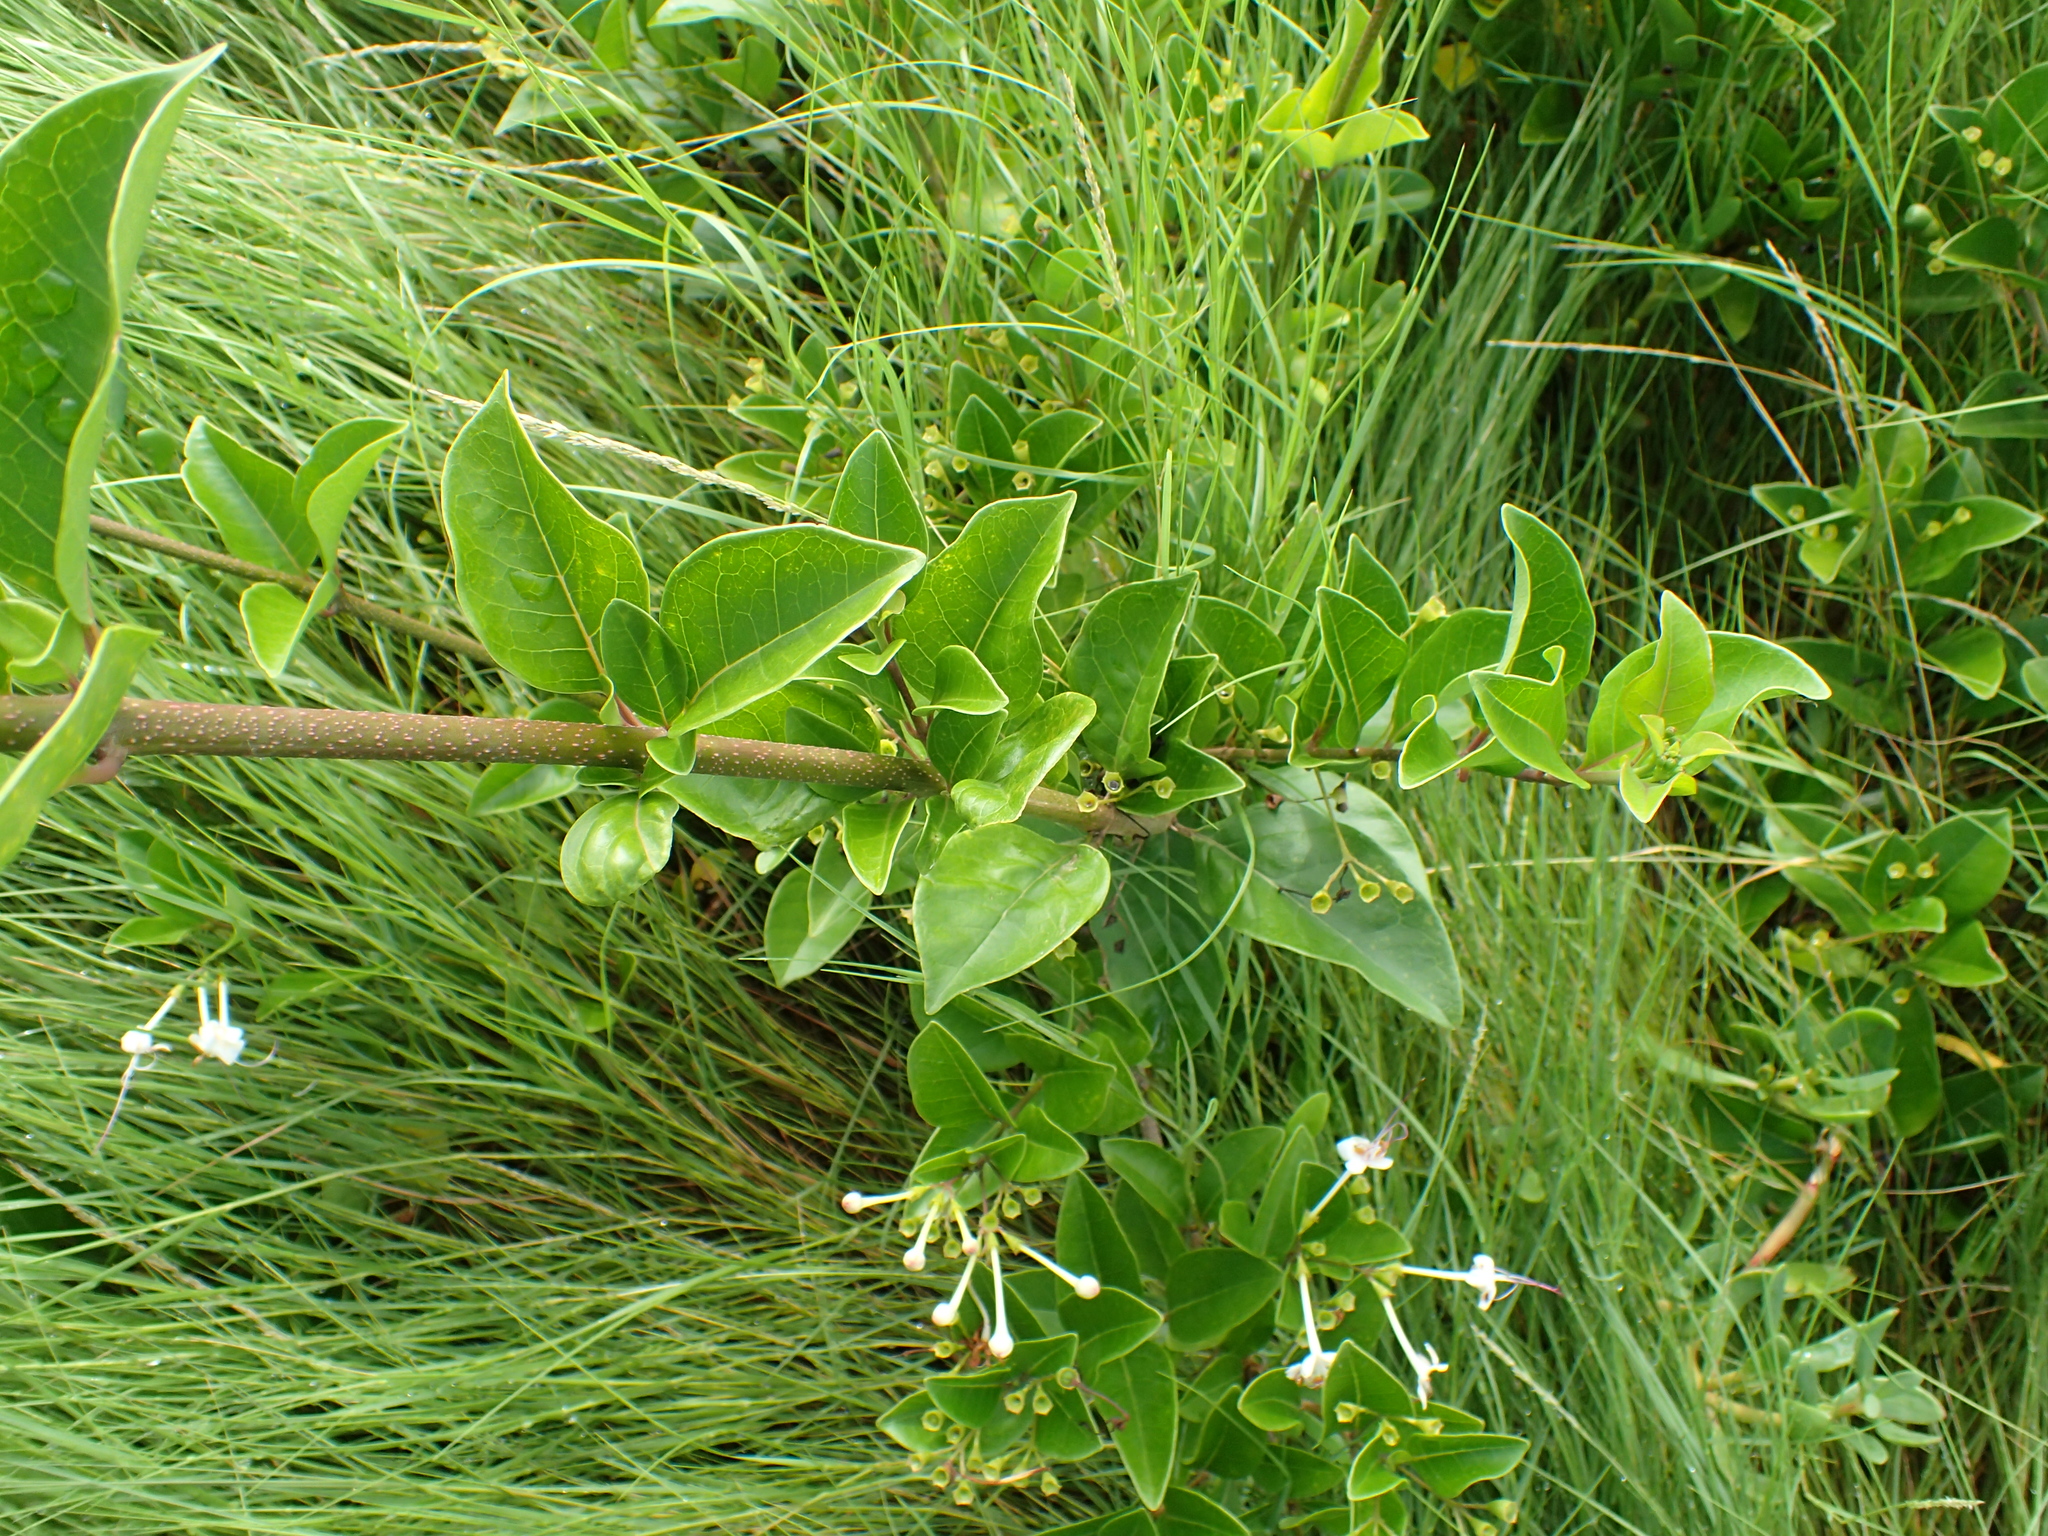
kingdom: Plantae
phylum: Tracheophyta
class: Magnoliopsida
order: Lamiales
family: Lamiaceae
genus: Volkameria
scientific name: Volkameria inermis
